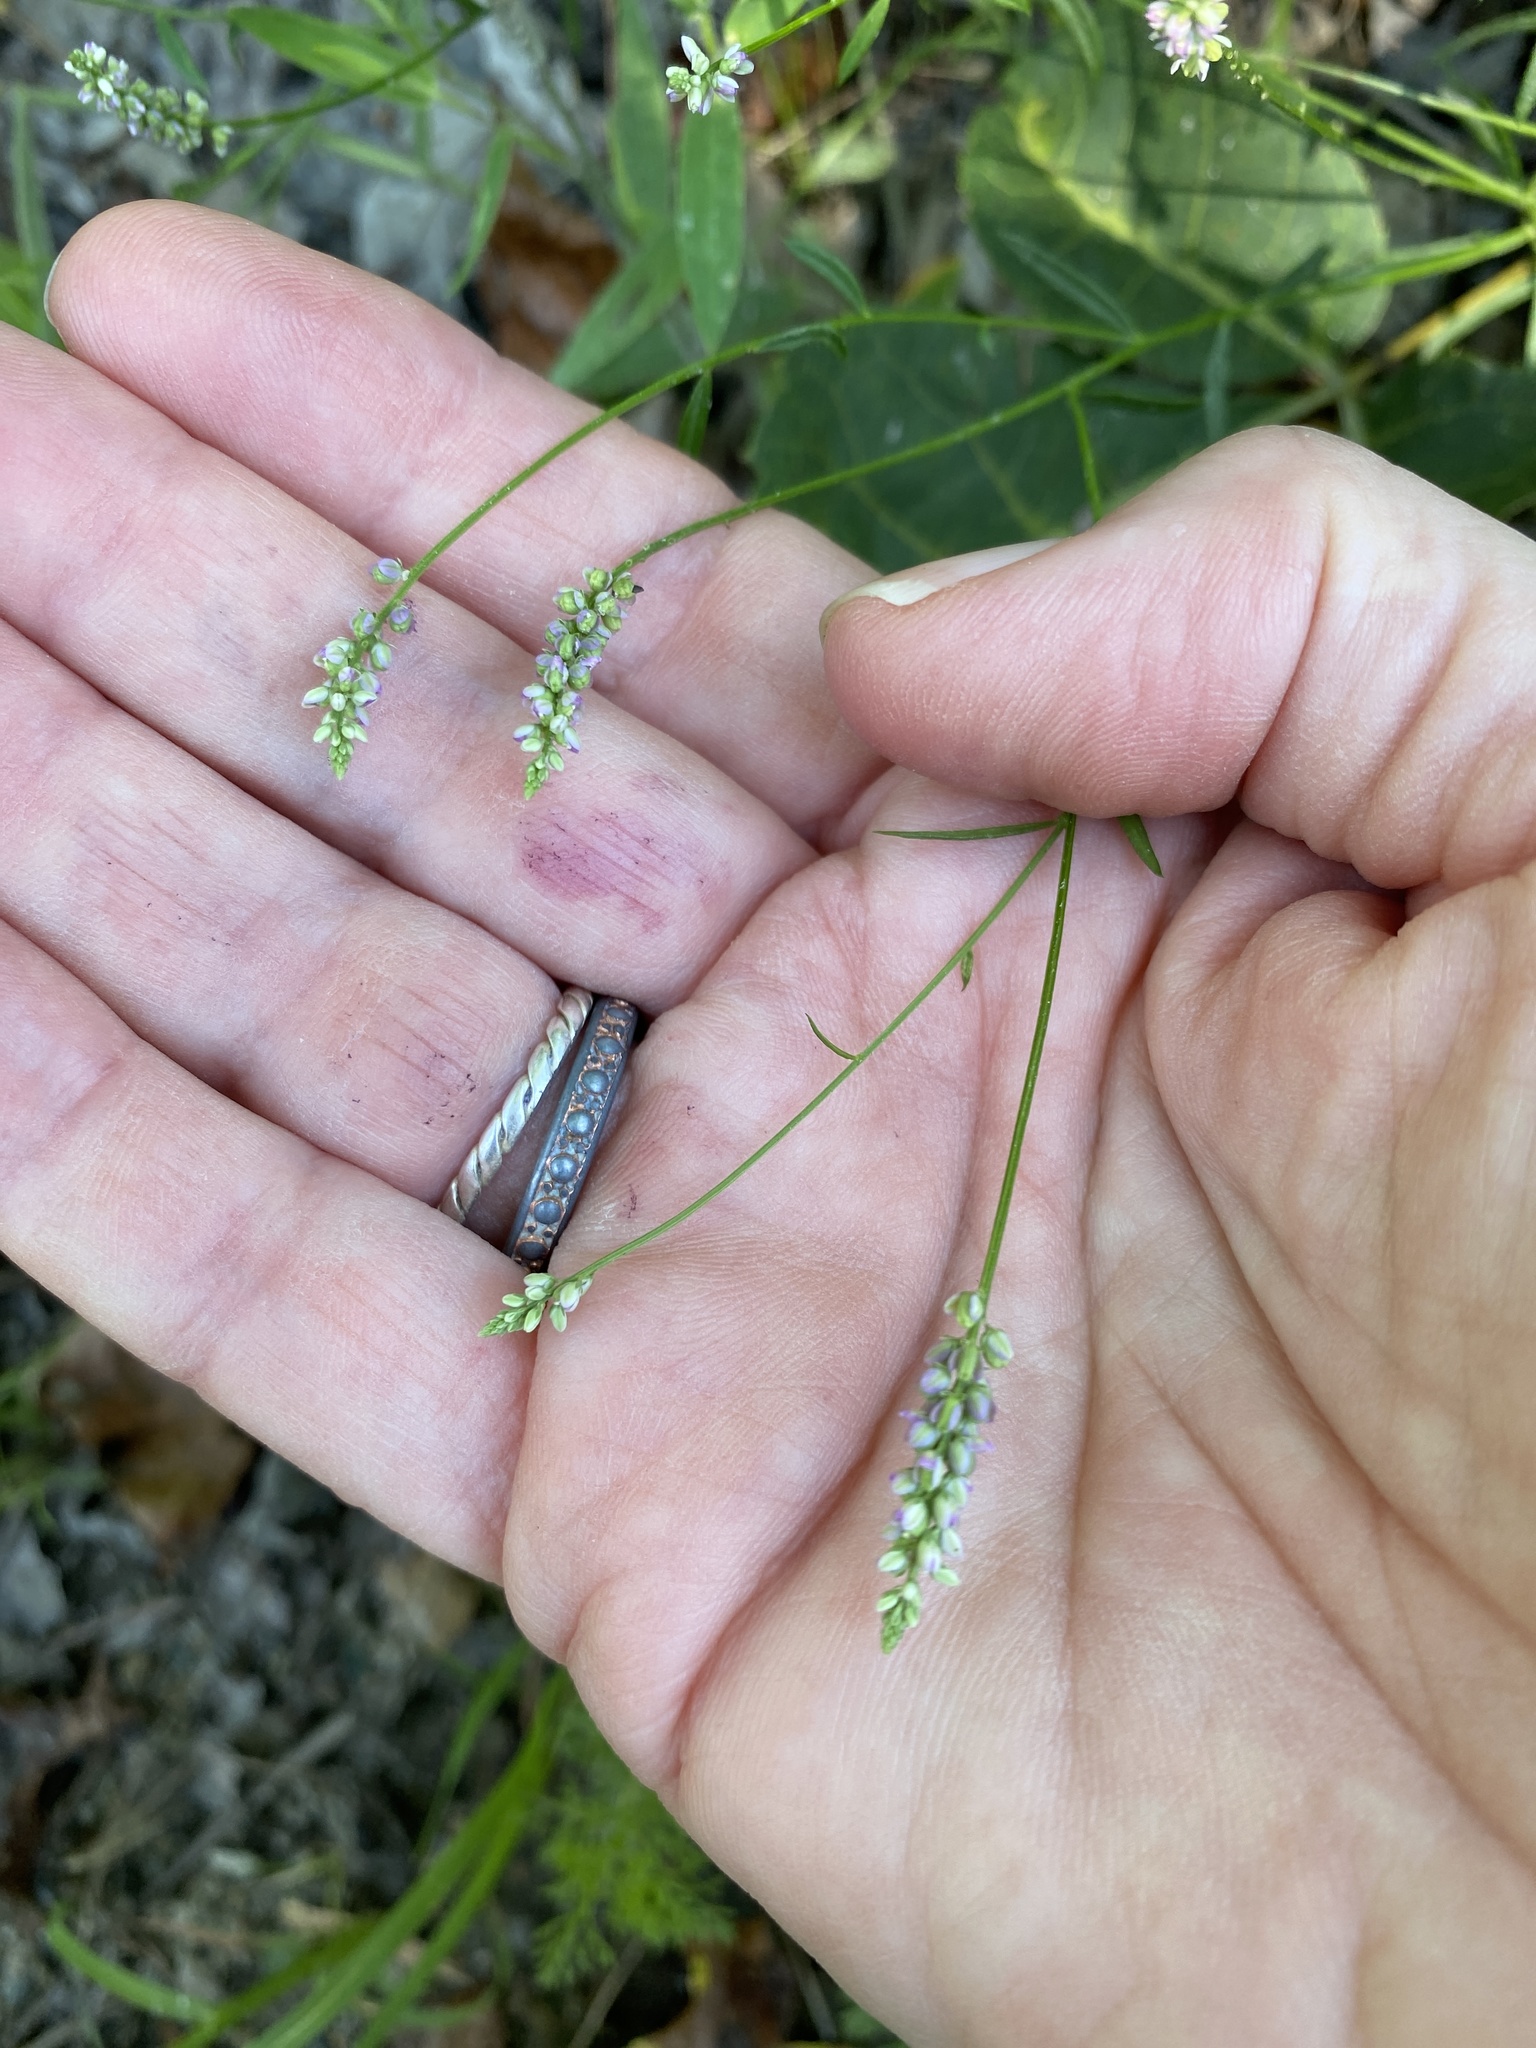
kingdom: Plantae
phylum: Tracheophyta
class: Magnoliopsida
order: Fabales
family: Polygalaceae
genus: Polygala
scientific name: Polygala verticillata
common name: Whorl milkwort
